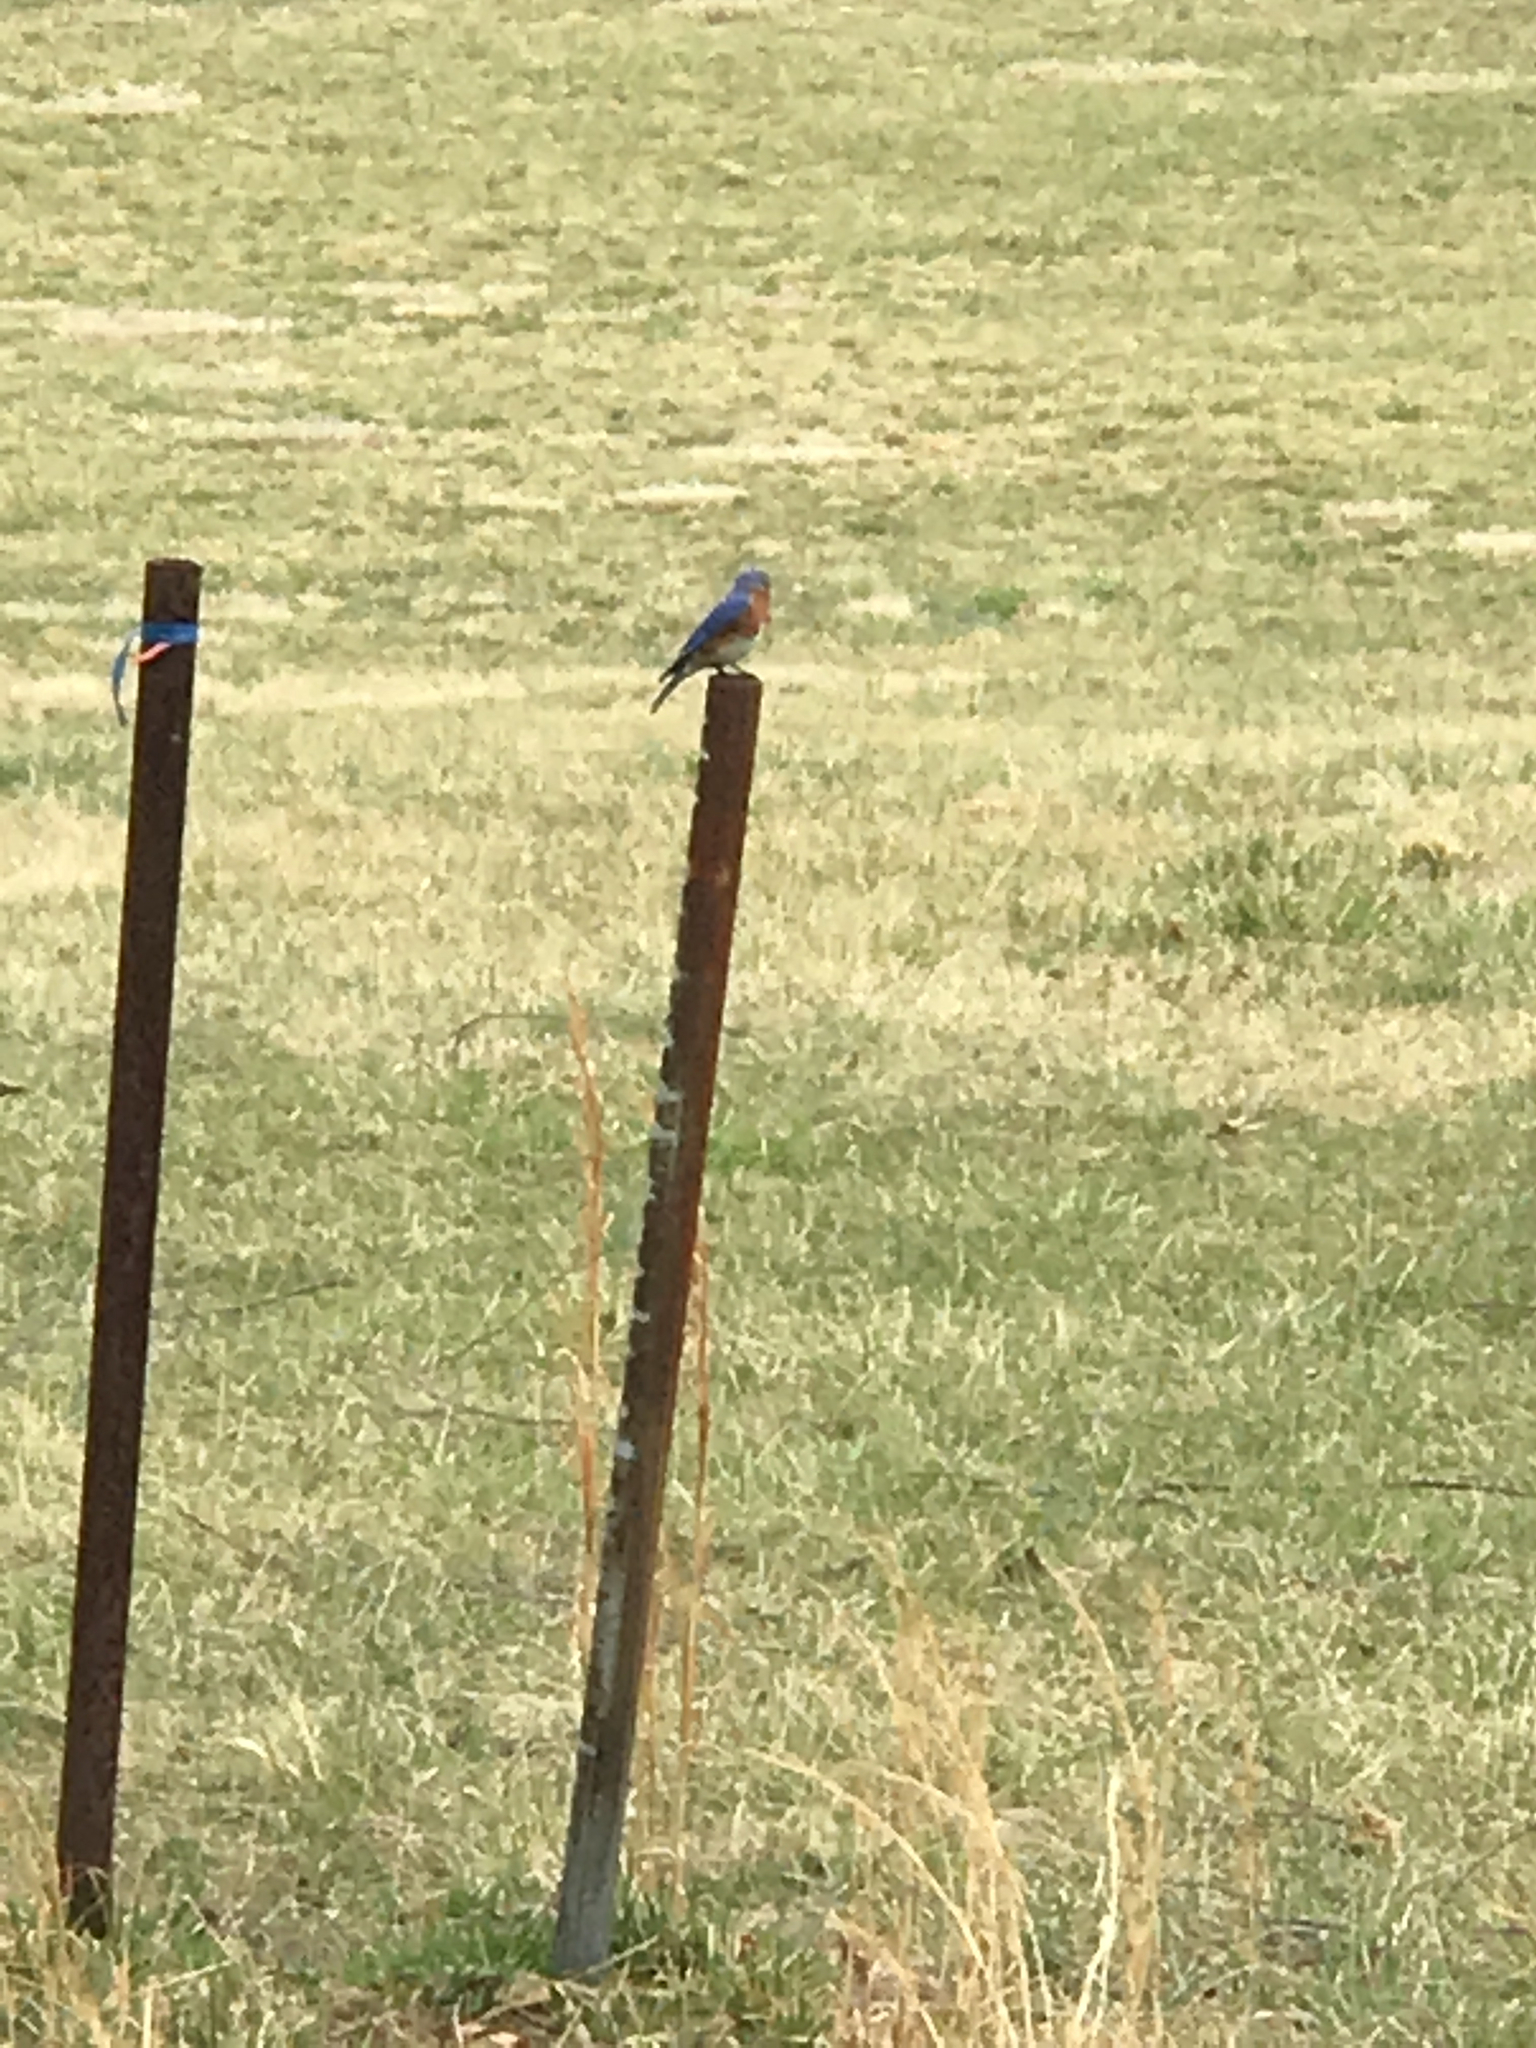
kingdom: Animalia
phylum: Chordata
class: Aves
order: Passeriformes
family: Turdidae
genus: Sialia
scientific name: Sialia sialis
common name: Eastern bluebird
